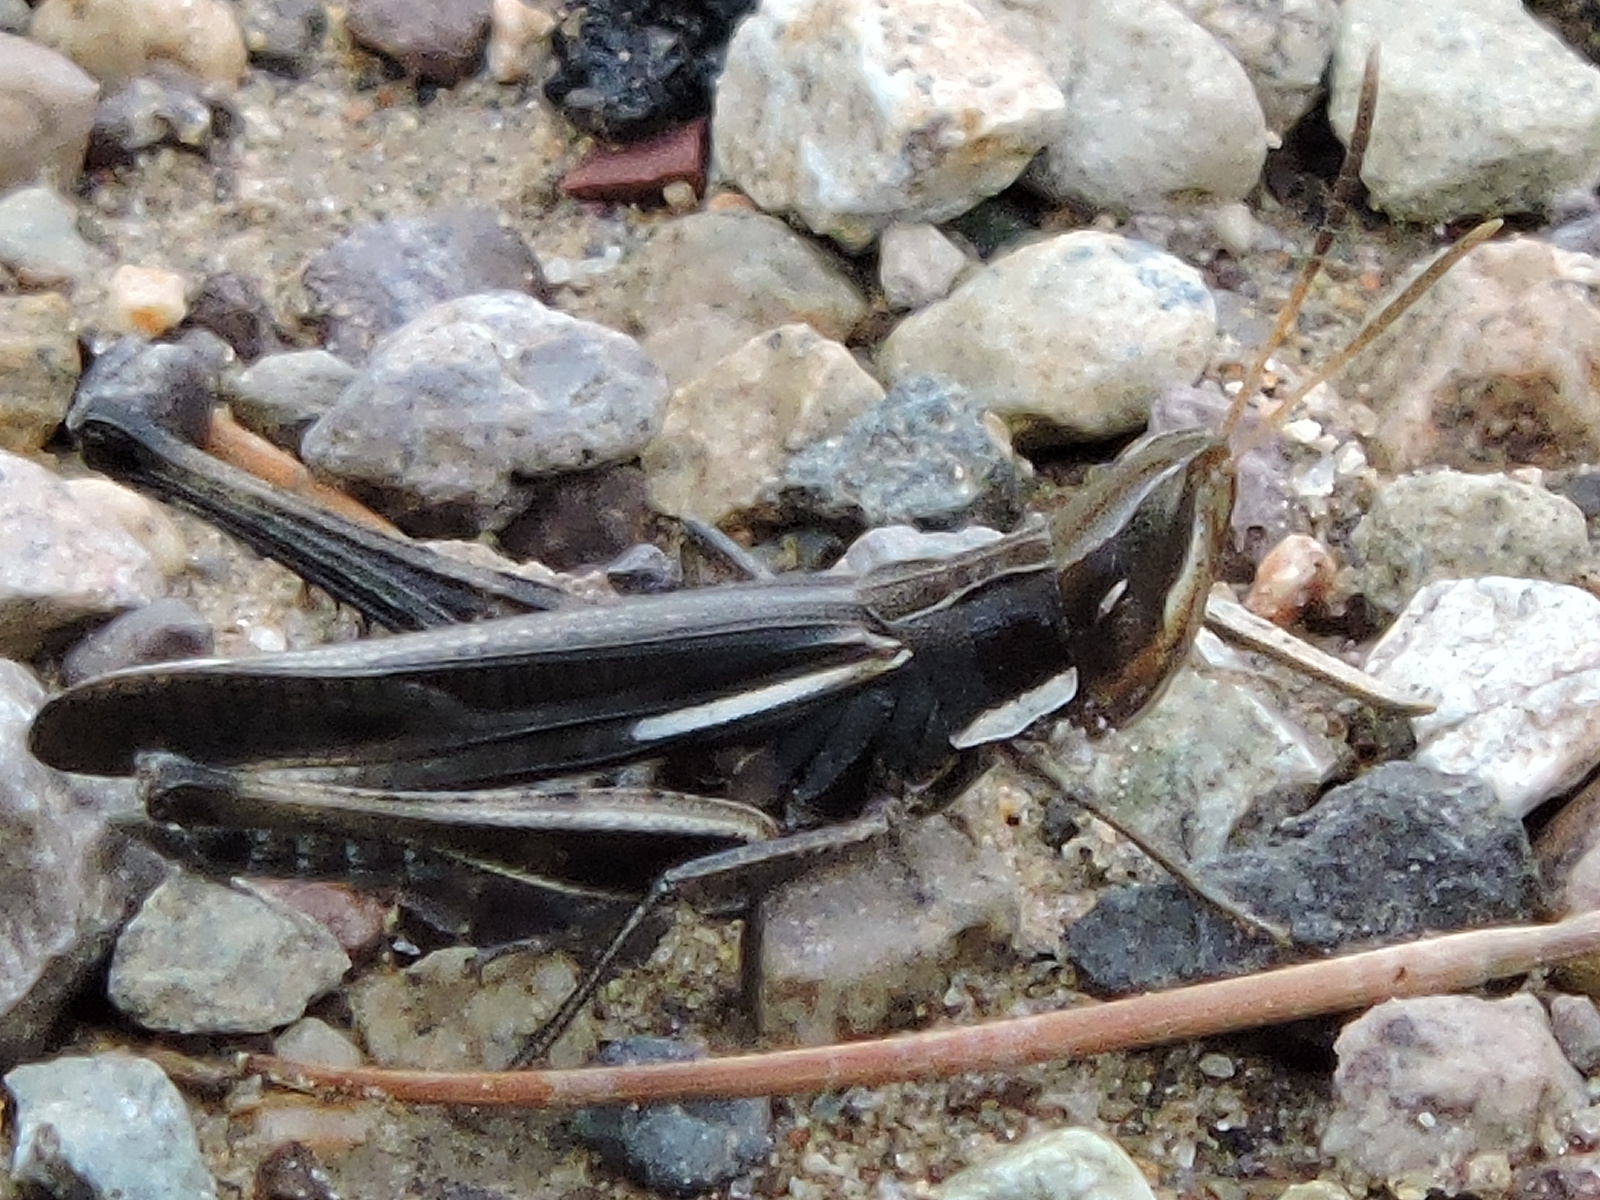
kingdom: Animalia
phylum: Arthropoda
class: Insecta
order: Orthoptera
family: Acrididae
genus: Syrbula
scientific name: Syrbula montezuma
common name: Montezuma's grasshopper
